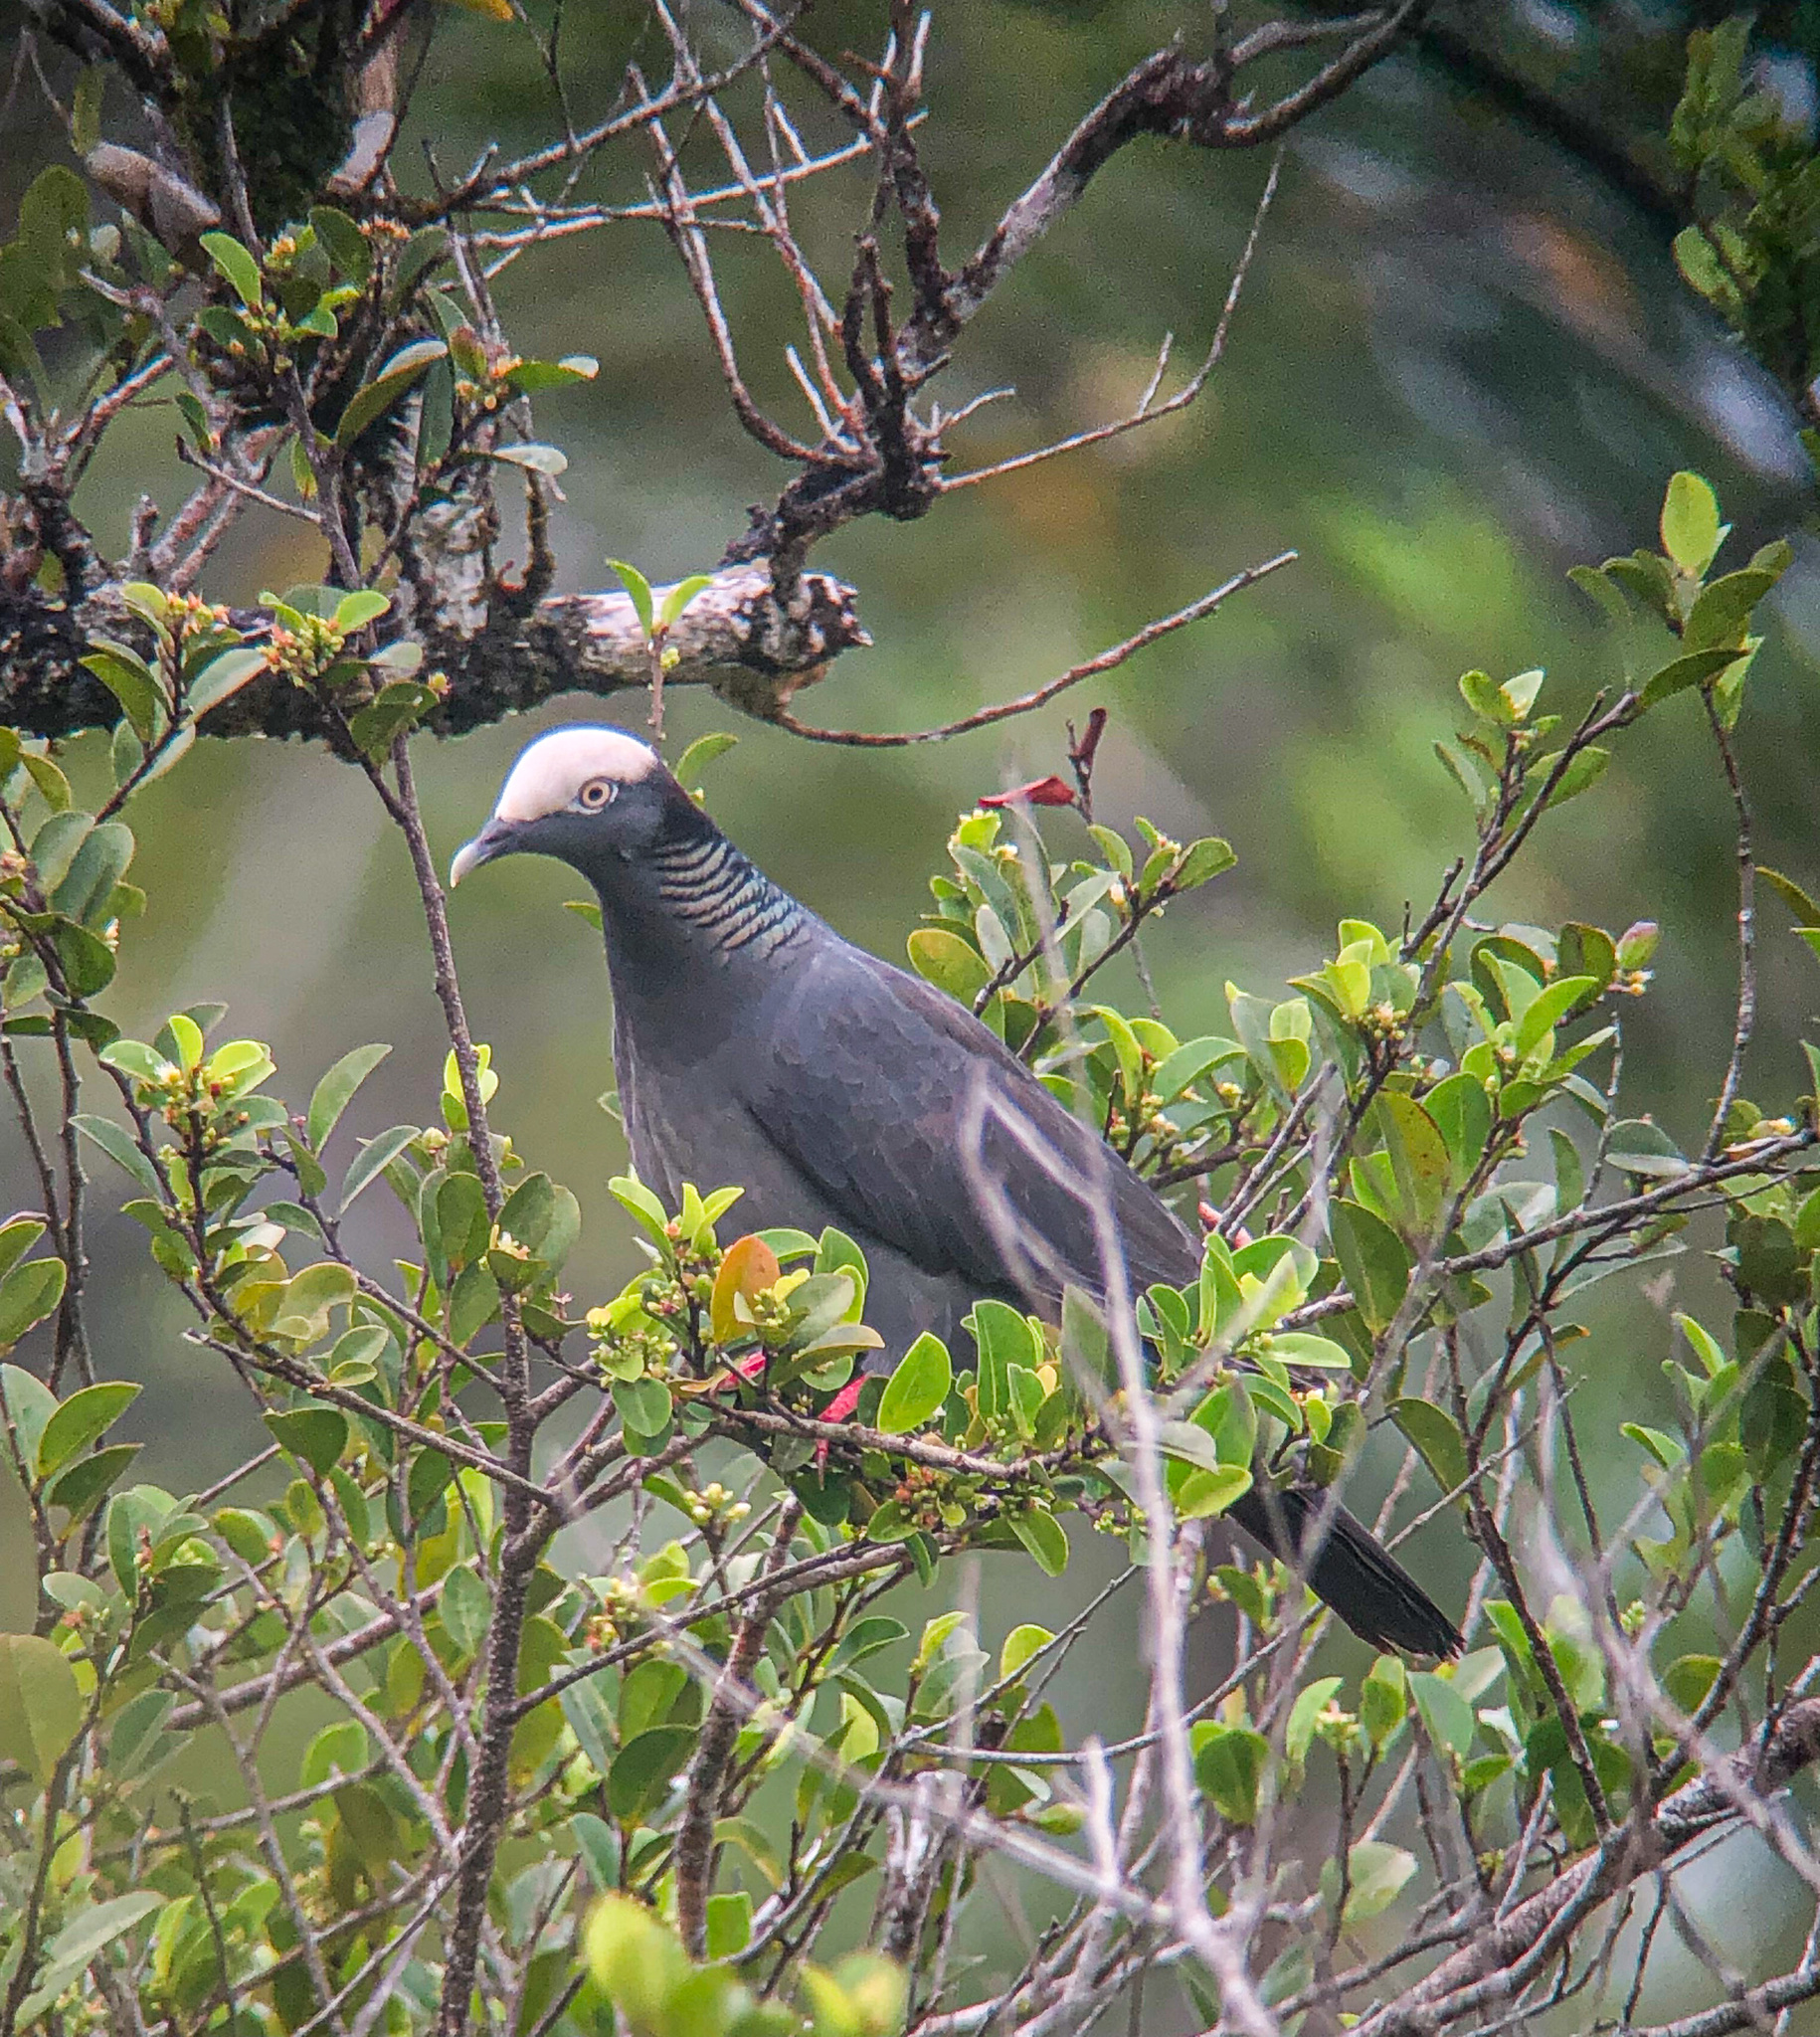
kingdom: Animalia
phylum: Chordata
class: Aves
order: Columbiformes
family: Columbidae
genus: Patagioenas
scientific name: Patagioenas leucocephala
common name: White-crowned pigeon
